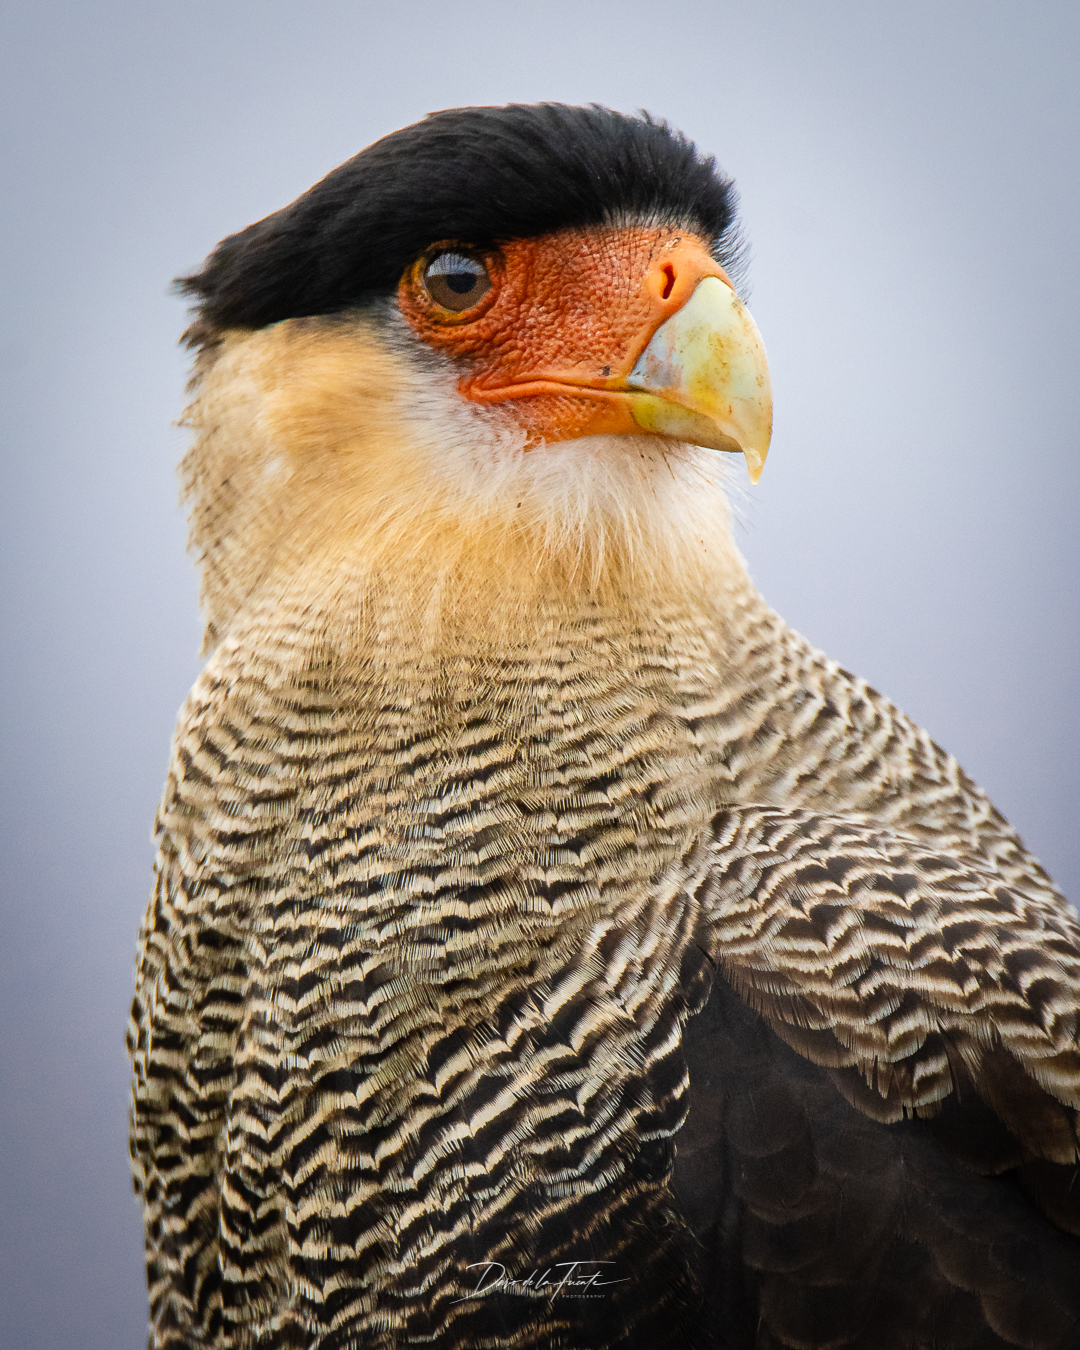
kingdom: Animalia
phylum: Chordata
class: Aves
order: Falconiformes
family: Falconidae
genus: Caracara
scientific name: Caracara plancus
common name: Southern caracara
